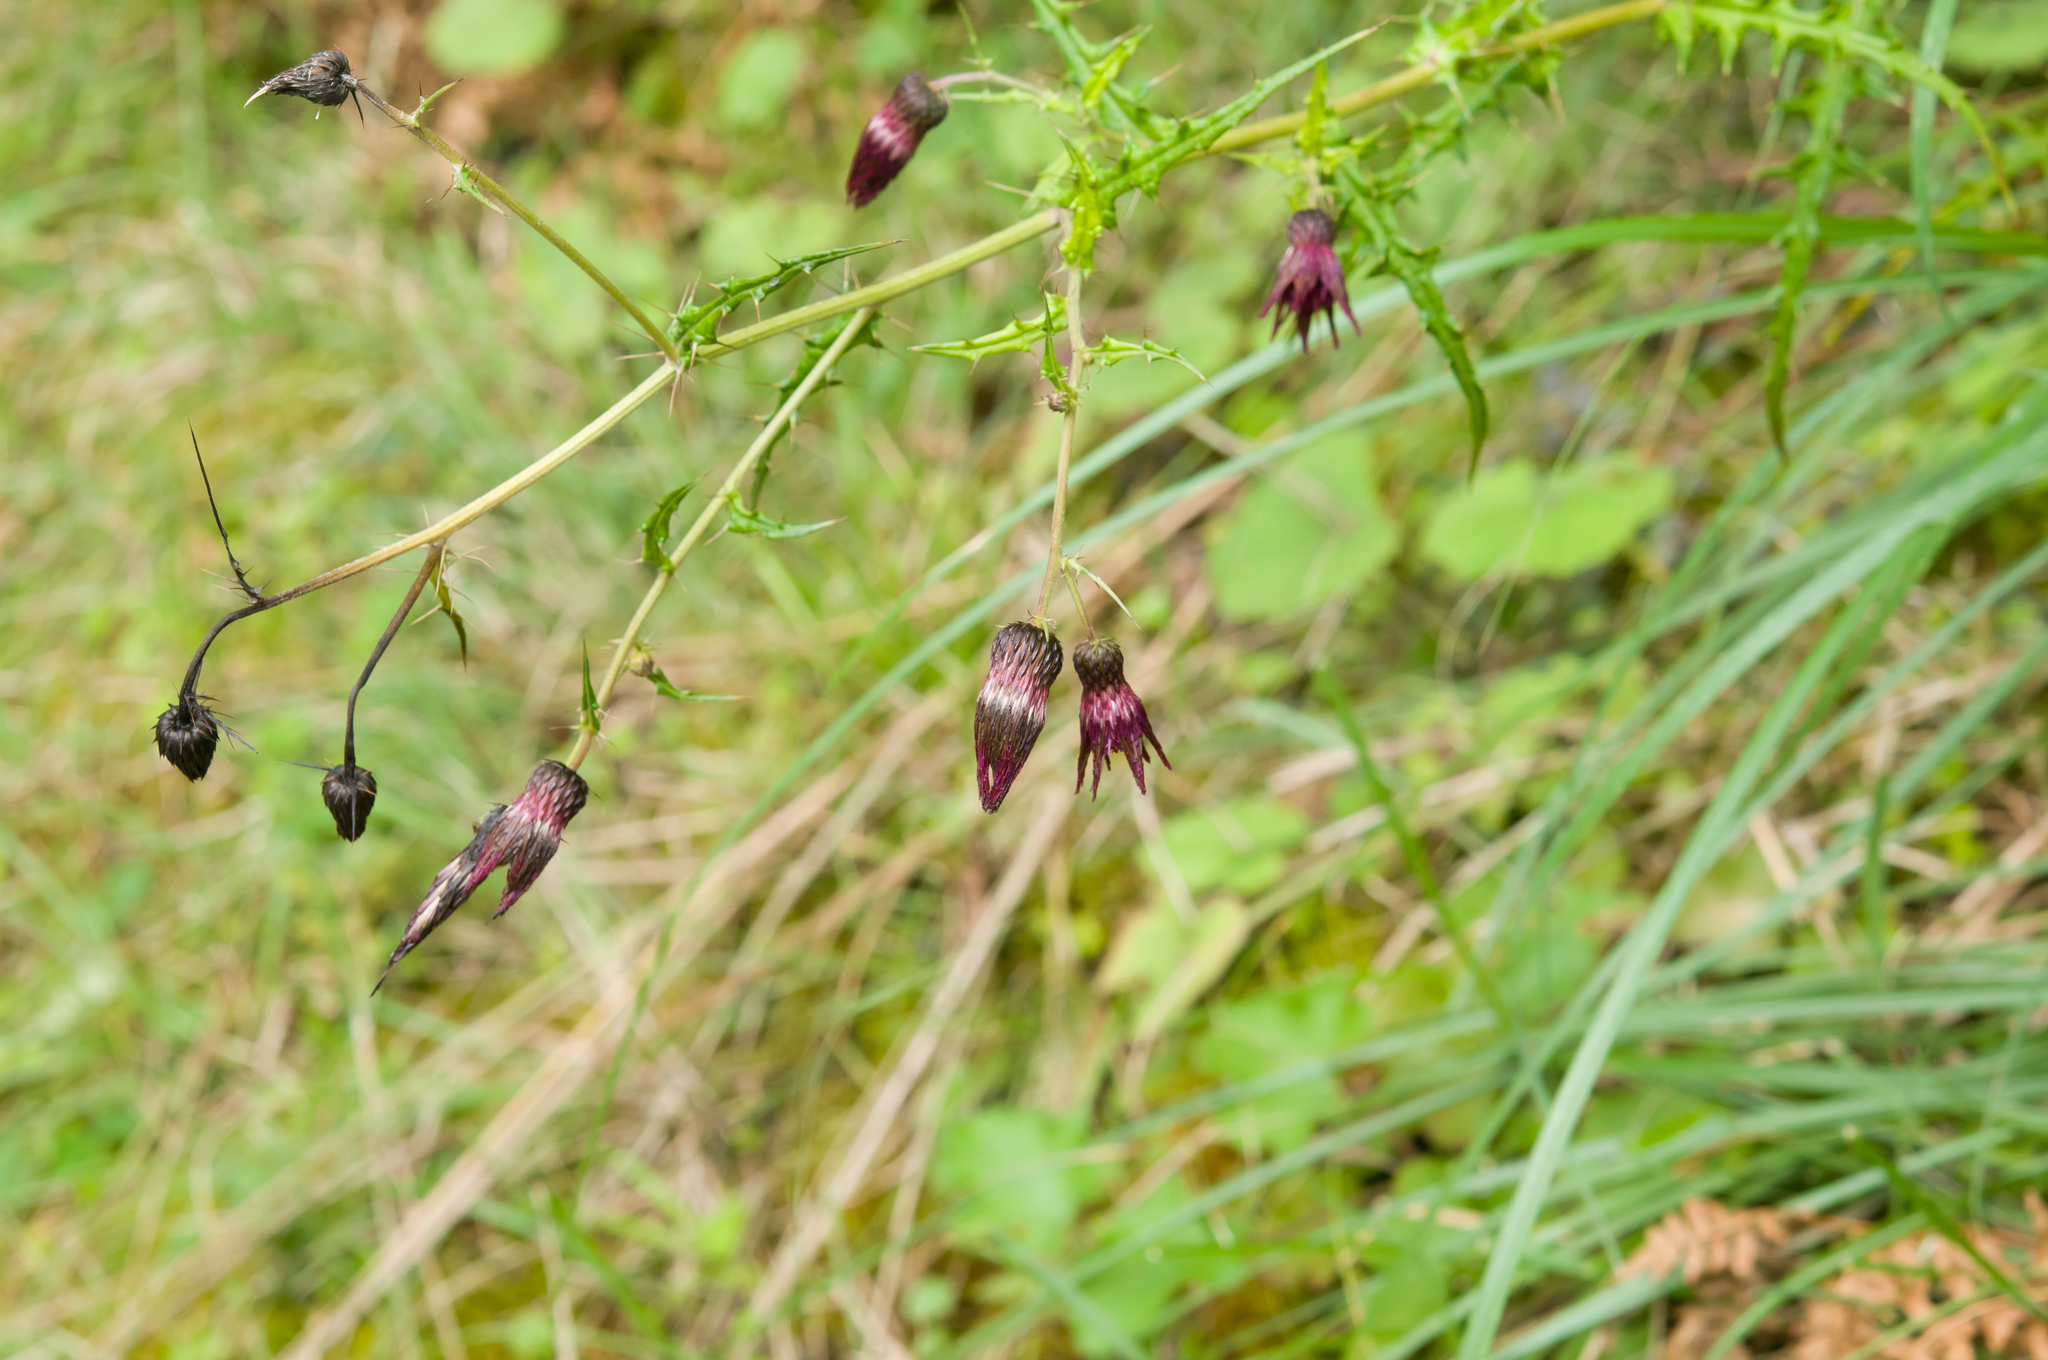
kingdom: Plantae
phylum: Tracheophyta
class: Magnoliopsida
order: Asterales
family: Asteraceae
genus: Cirsium
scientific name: Cirsium suzukii
